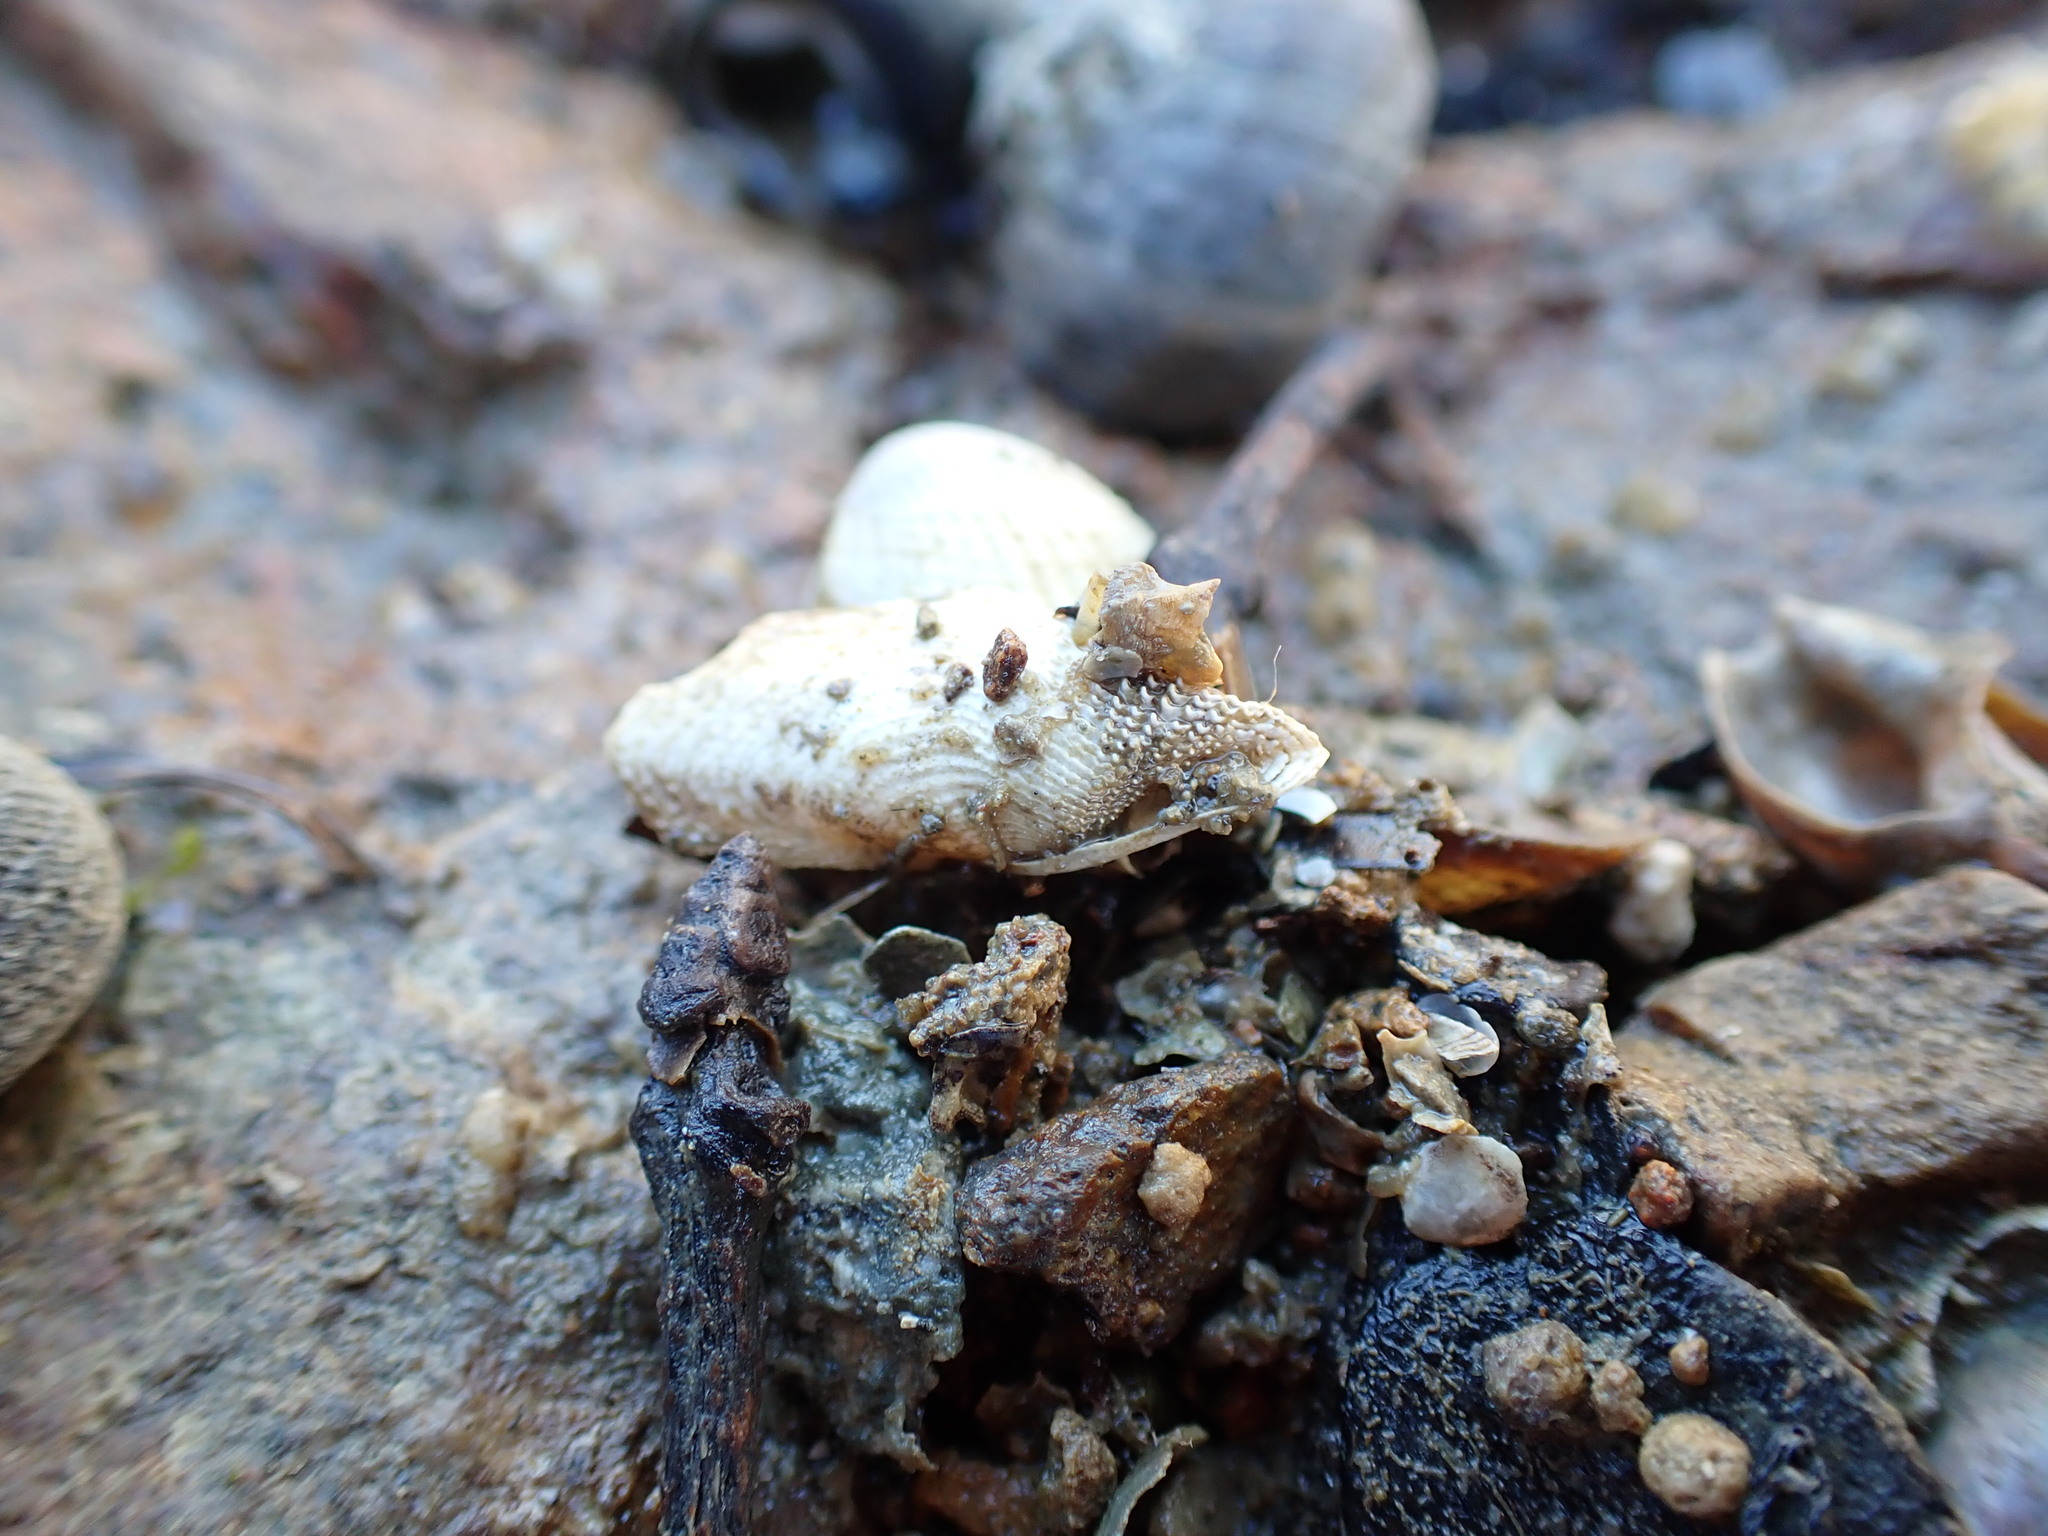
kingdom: Animalia
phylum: Mollusca
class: Bivalvia
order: Myida
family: Pholadidae
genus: Barnea
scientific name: Barnea similis
